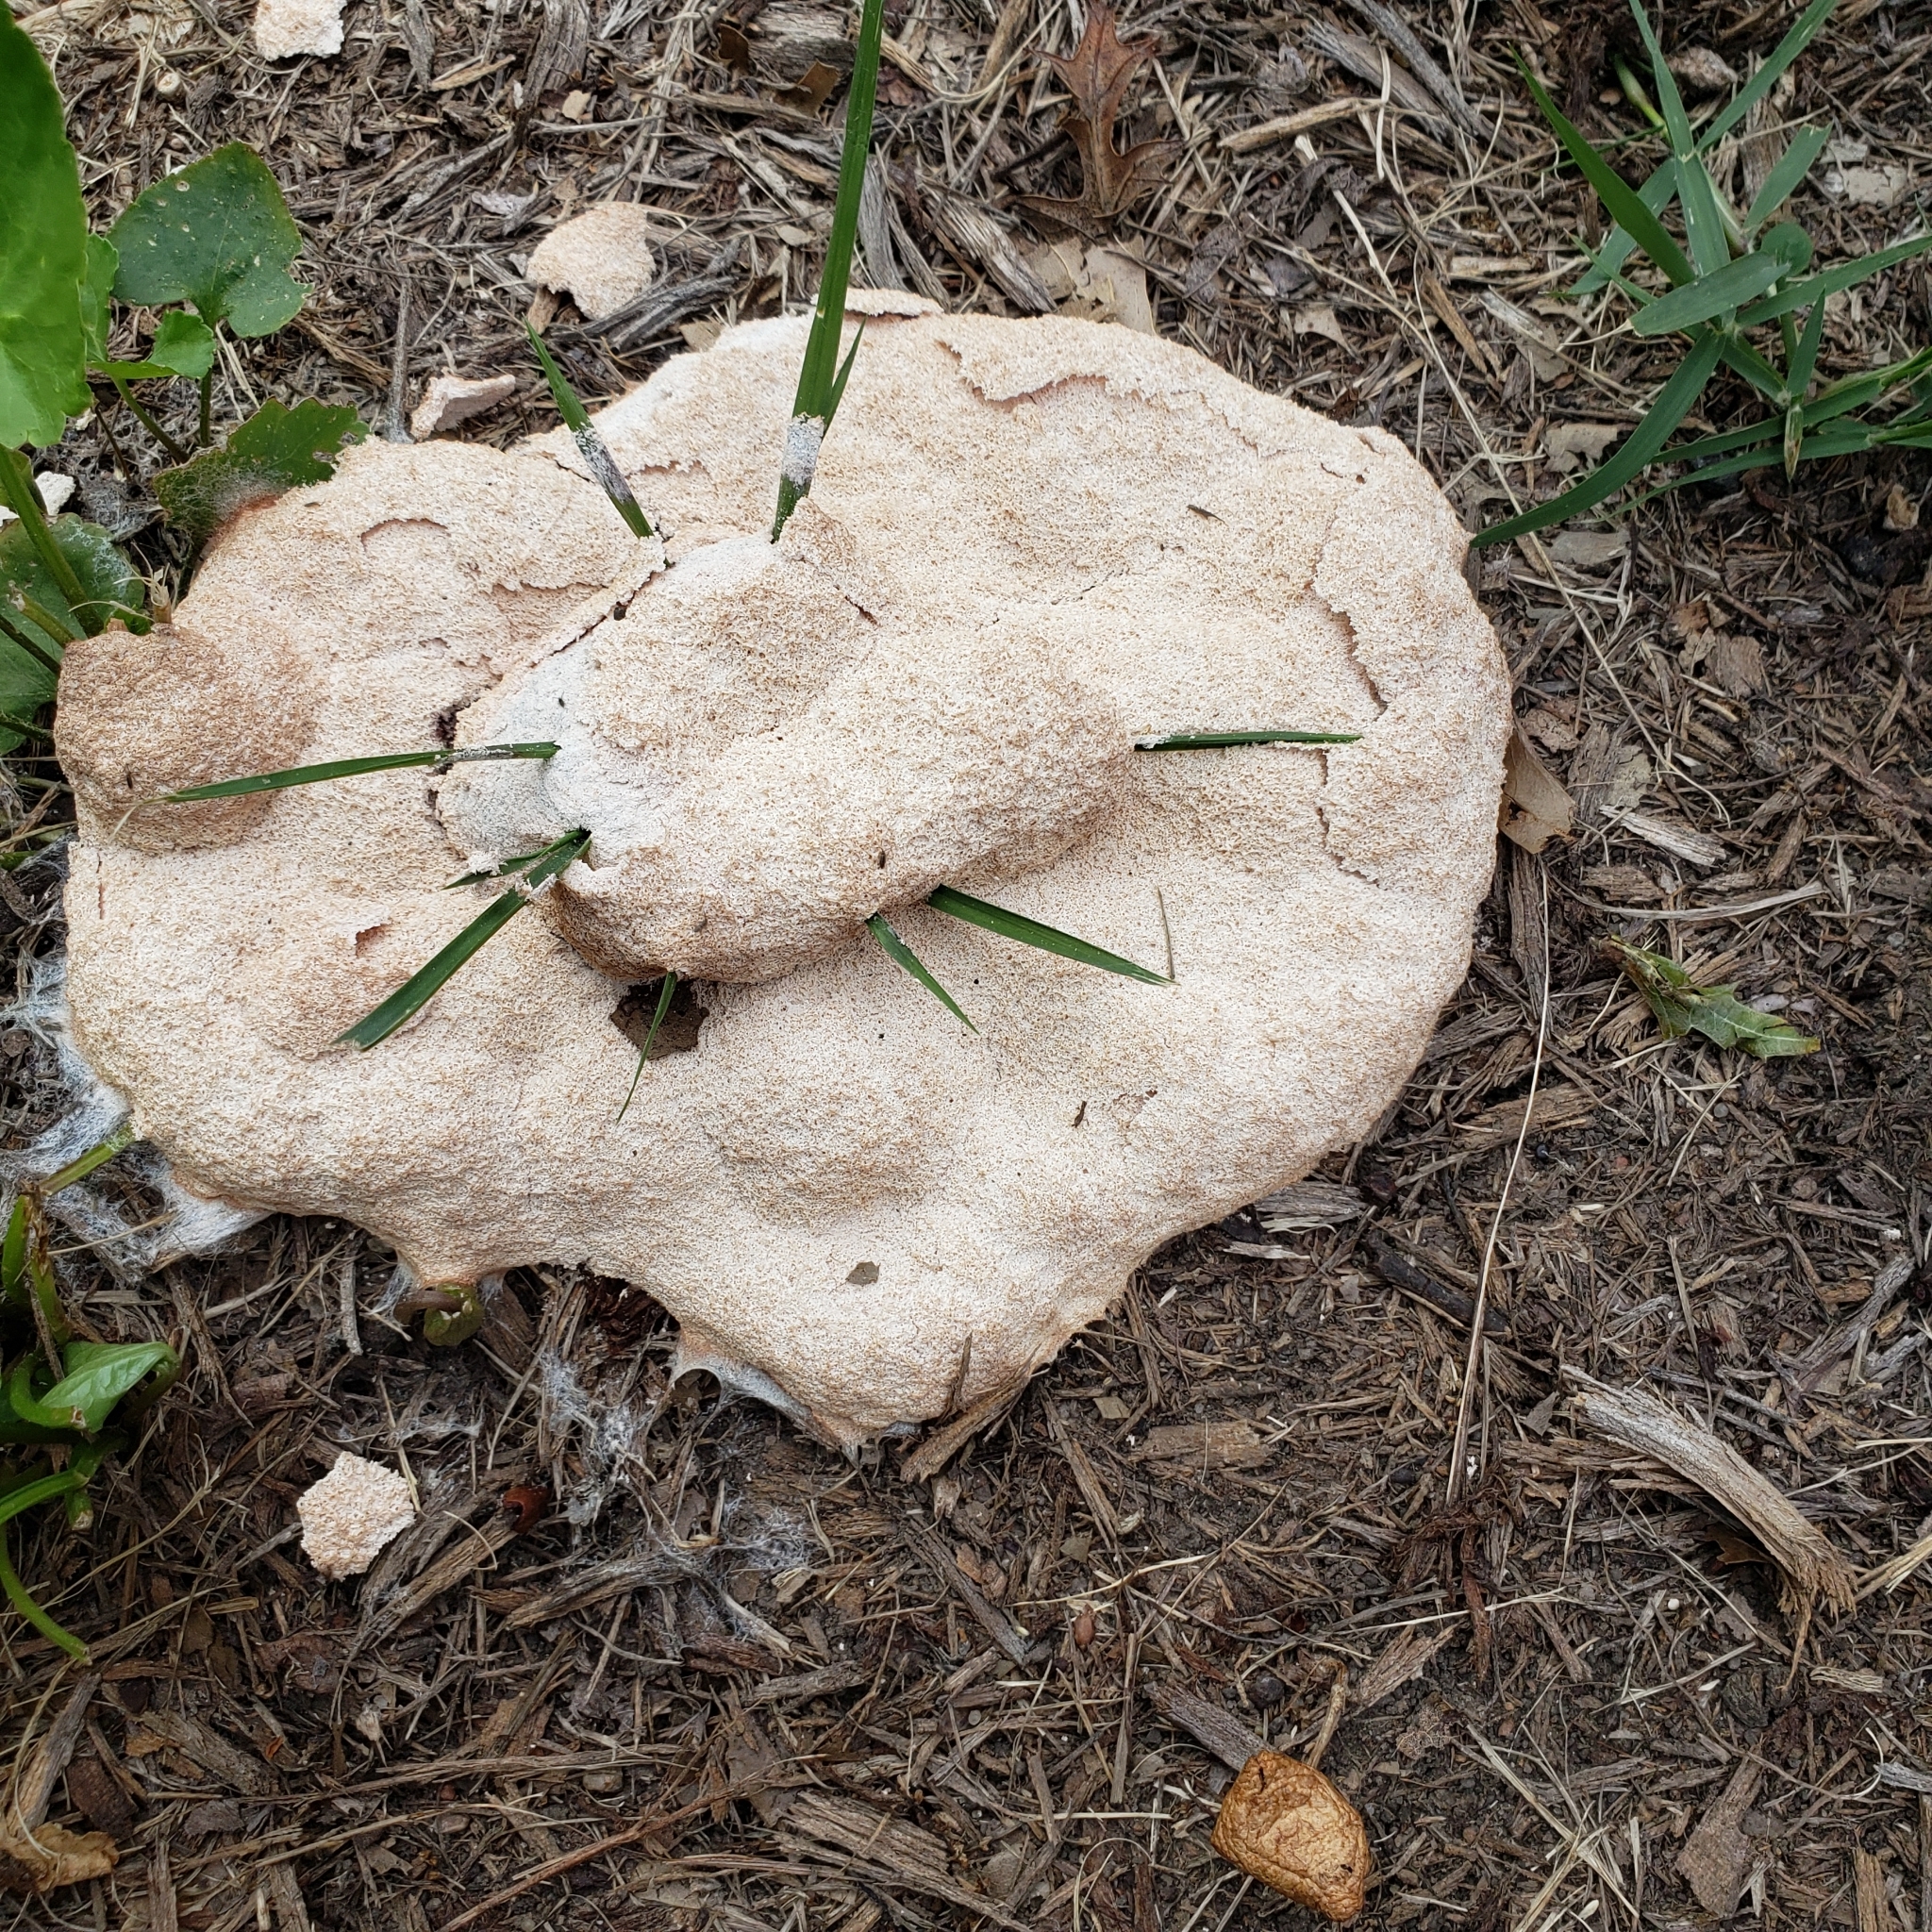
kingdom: Protozoa
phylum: Mycetozoa
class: Myxomycetes
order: Physarales
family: Physaraceae
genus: Fuligo
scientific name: Fuligo septica
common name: Dog vomit slime mold
